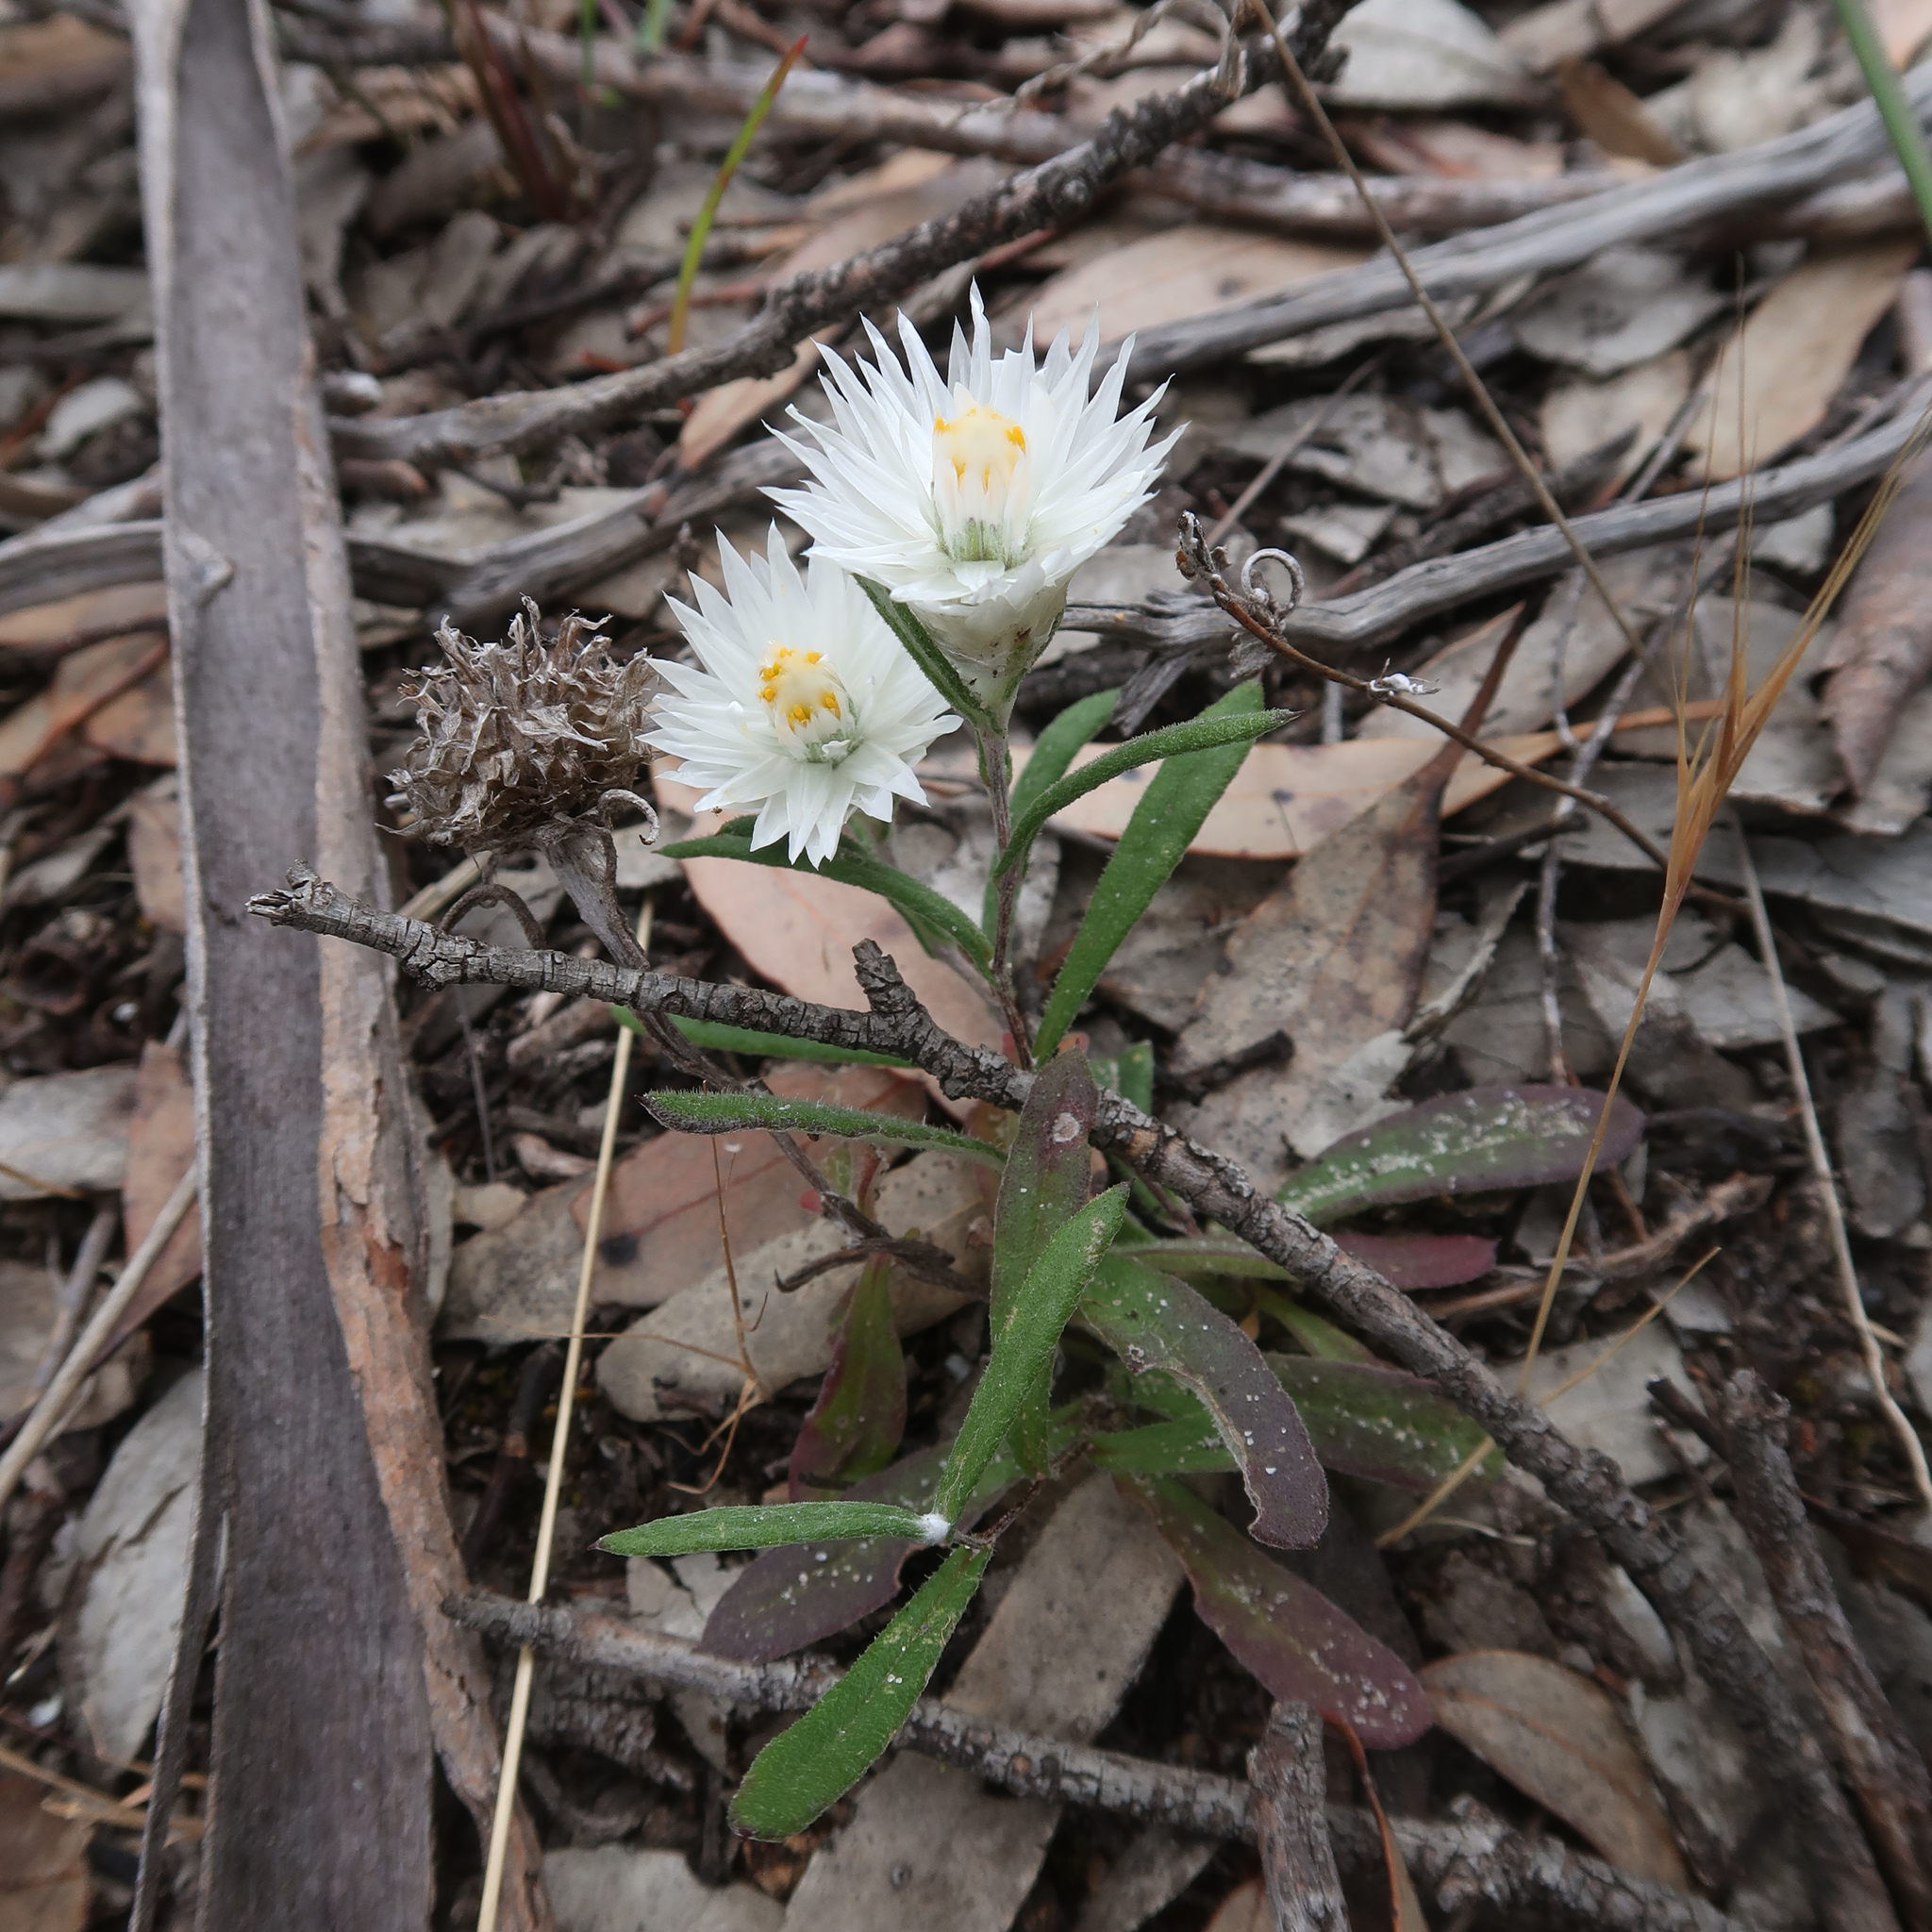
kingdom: Plantae
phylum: Tracheophyta
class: Magnoliopsida
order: Asterales
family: Asteraceae
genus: Helichrysum
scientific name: Helichrysum leucopsideum
